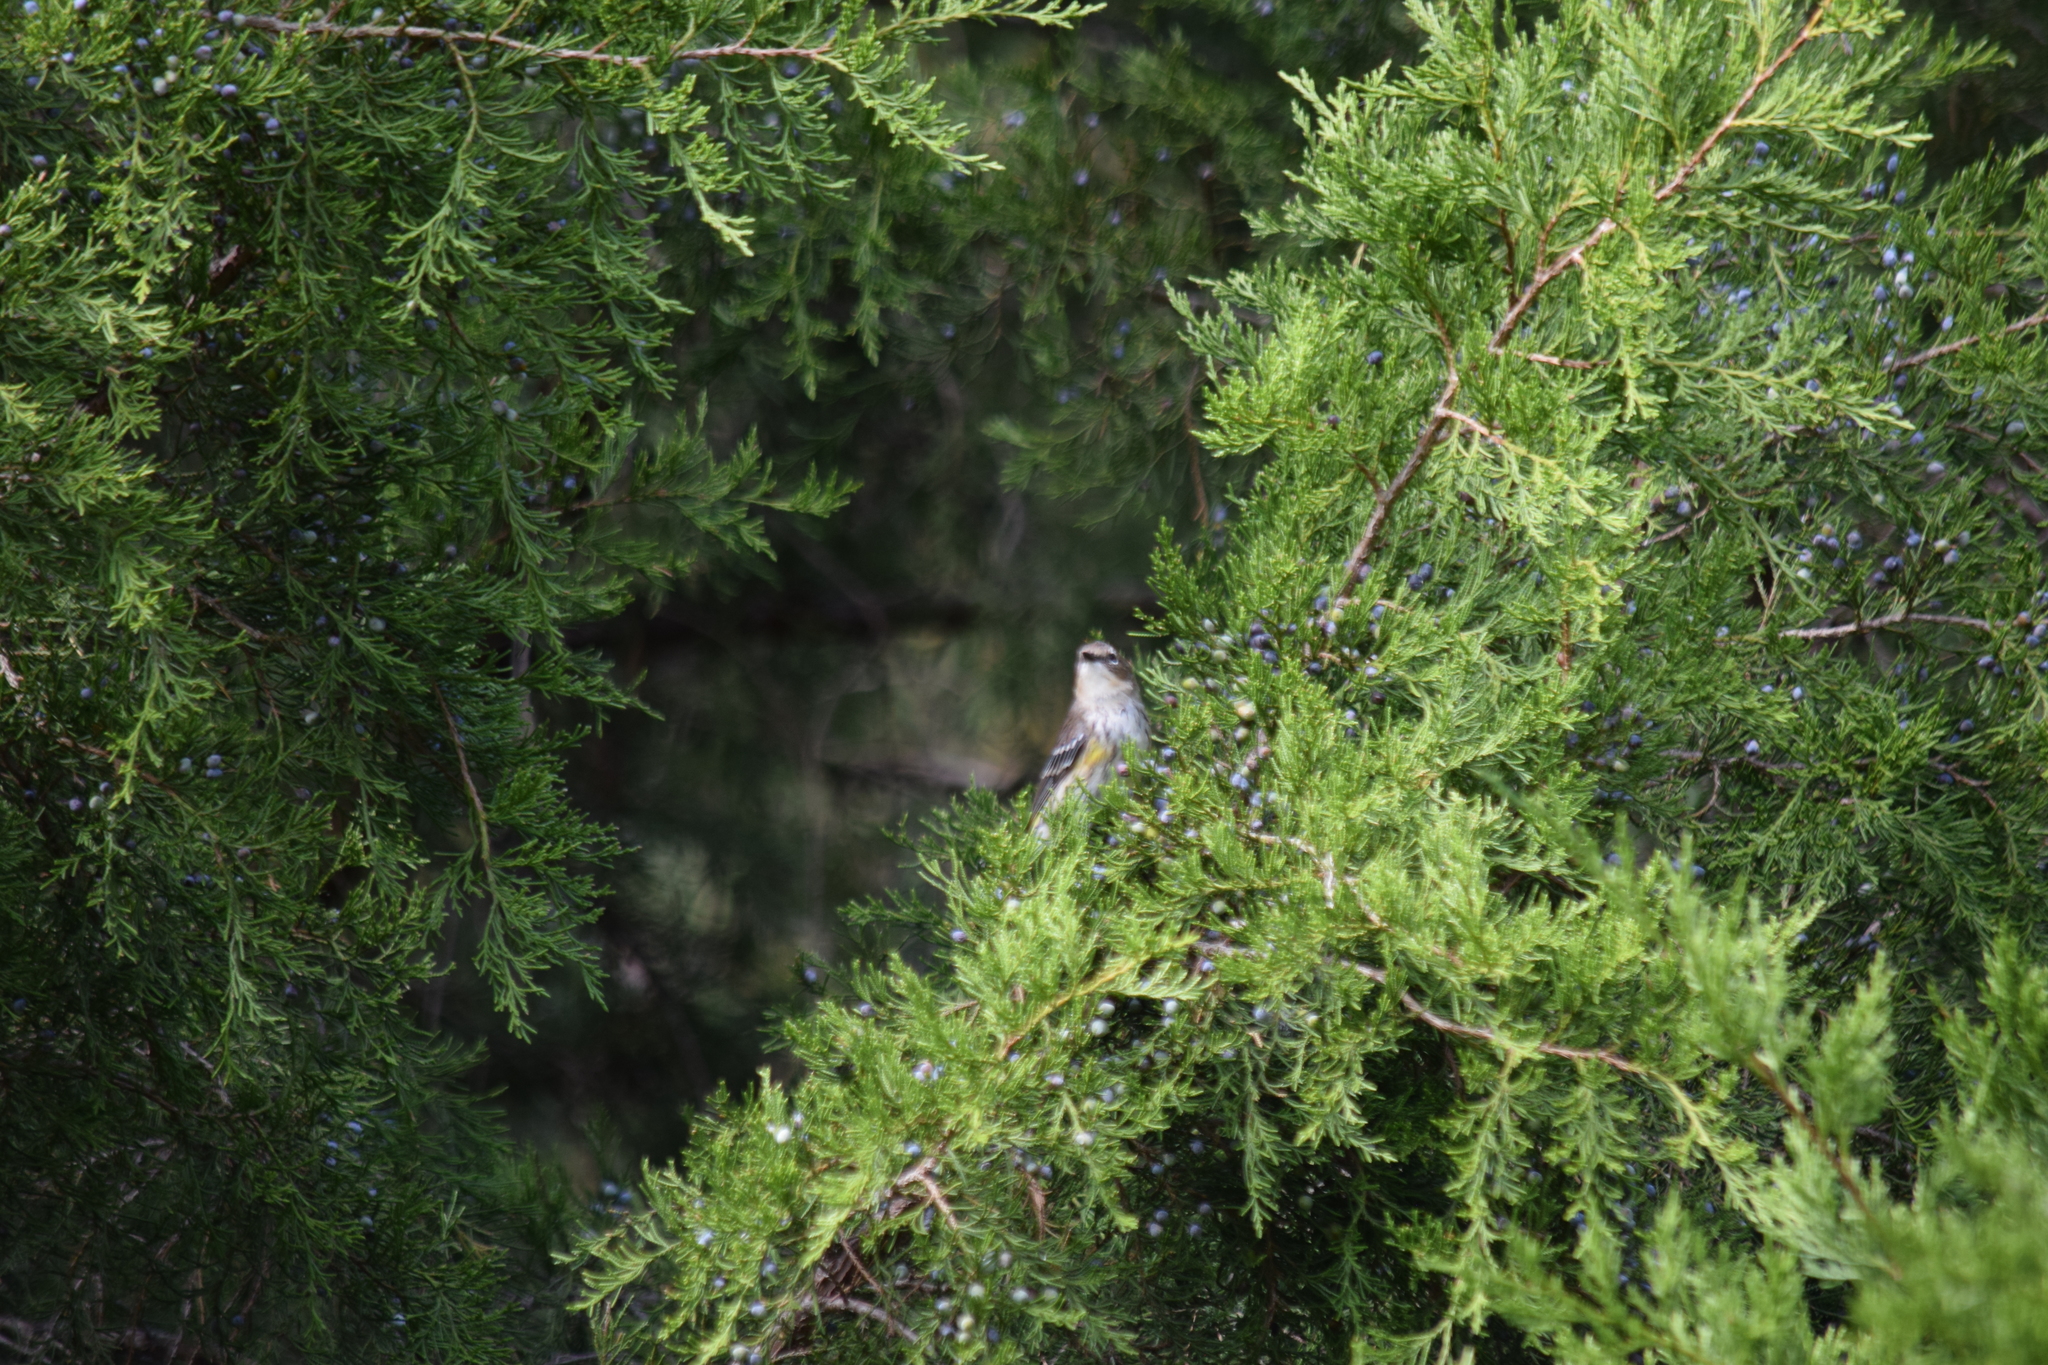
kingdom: Animalia
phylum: Chordata
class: Aves
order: Passeriformes
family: Parulidae
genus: Setophaga
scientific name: Setophaga coronata
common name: Myrtle warbler
